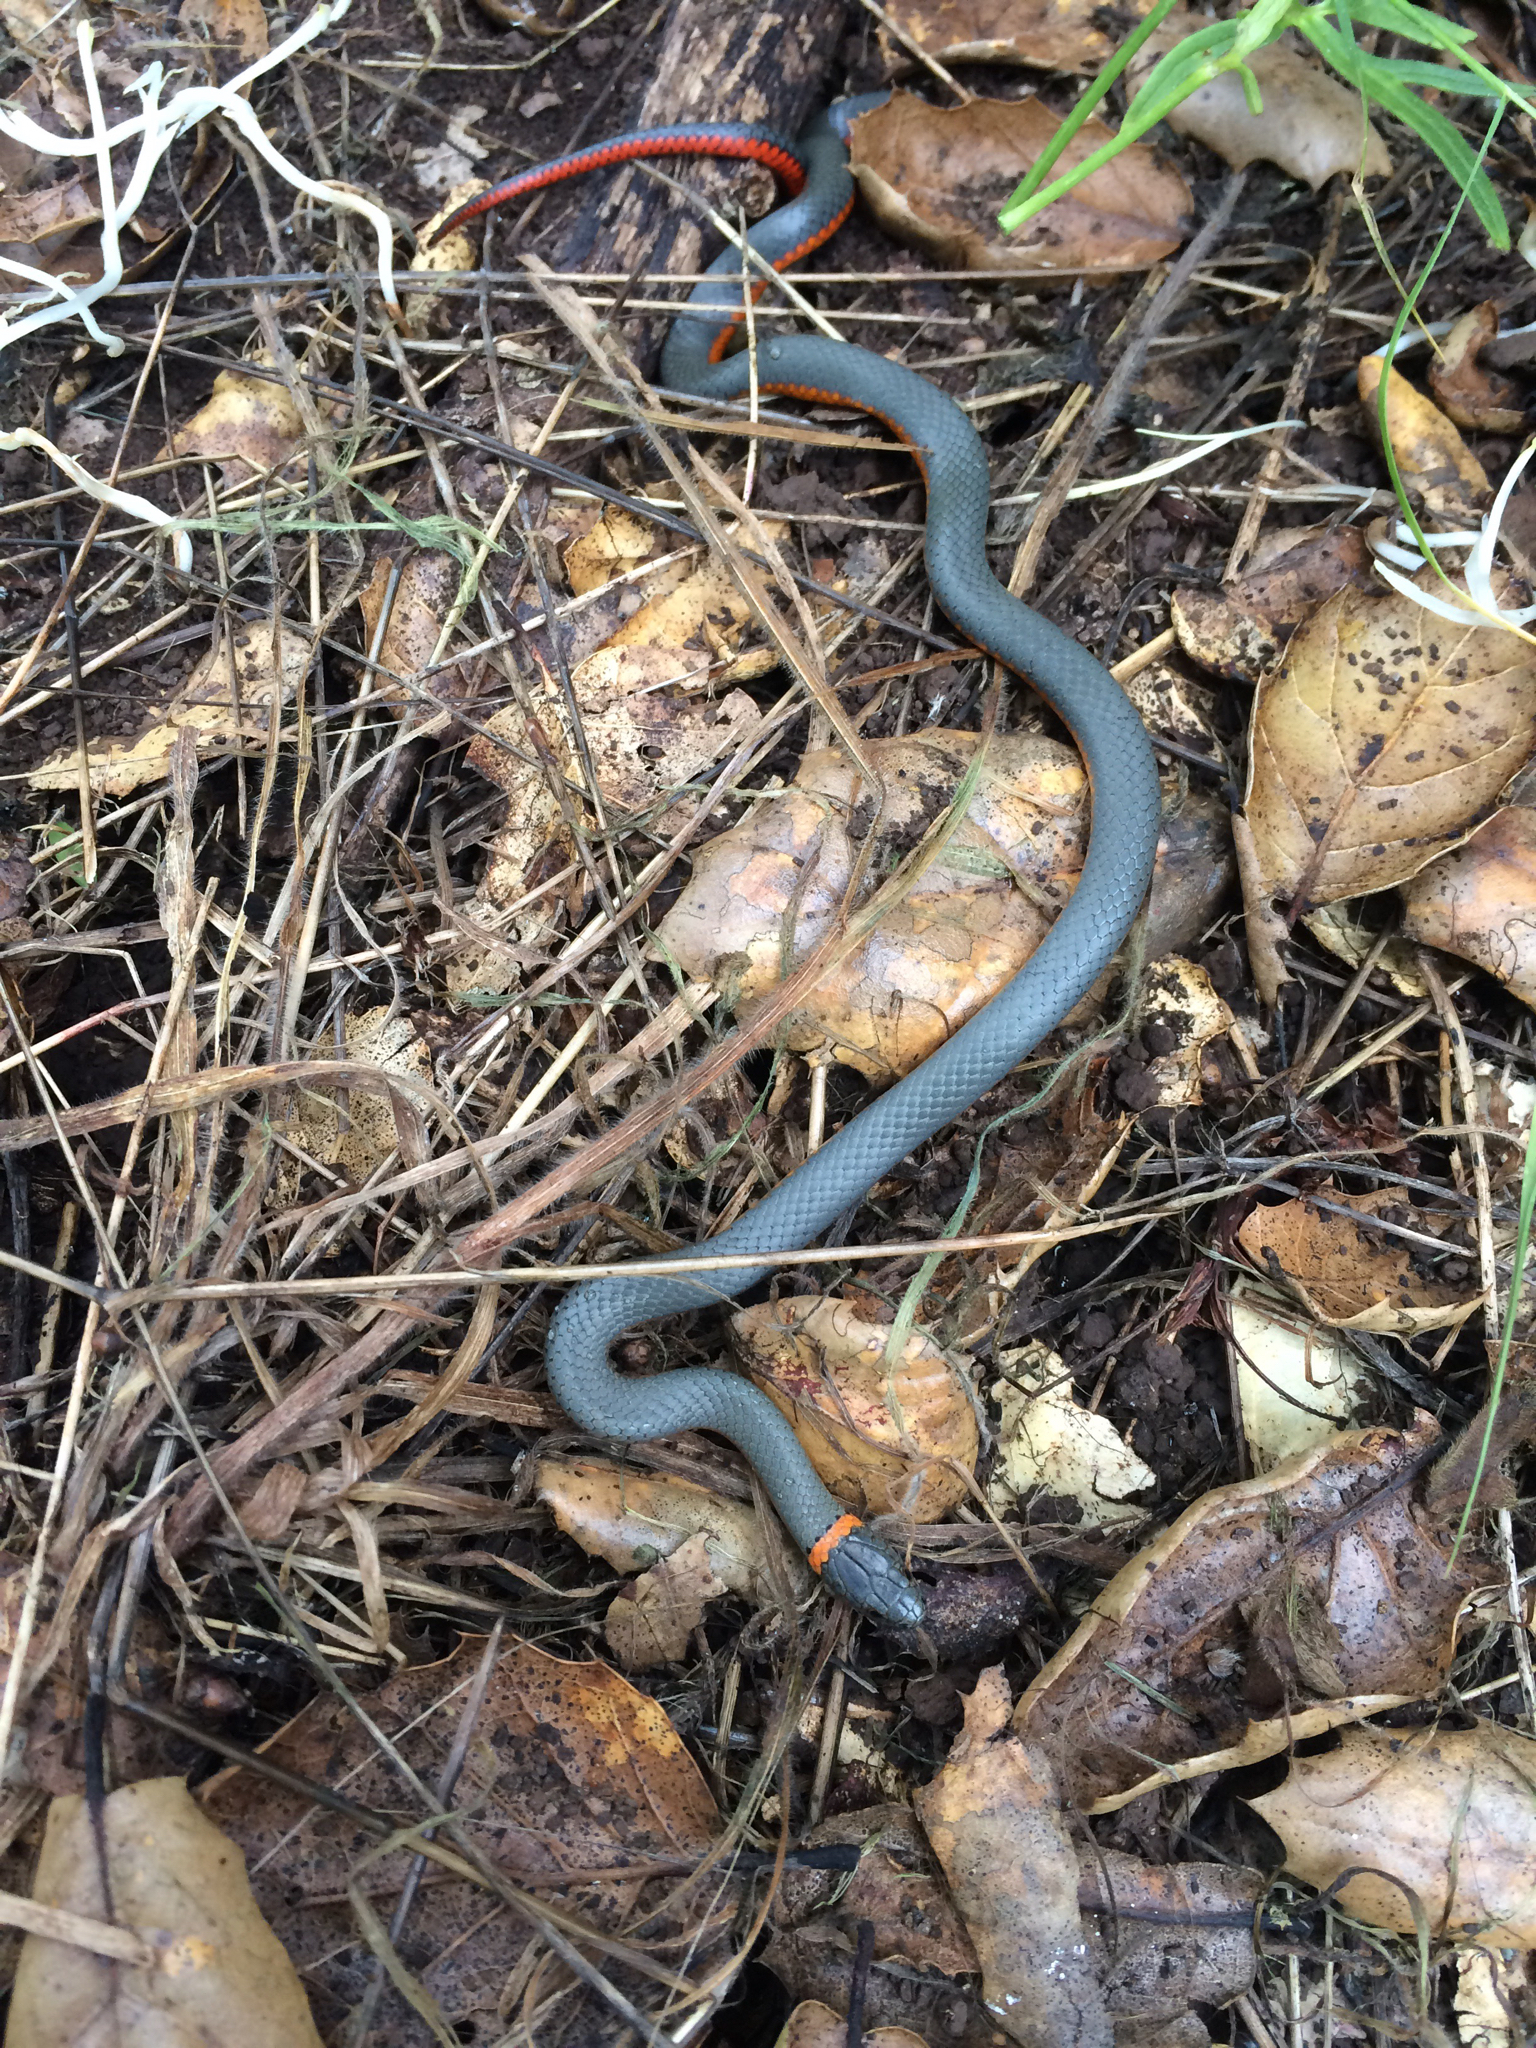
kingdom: Animalia
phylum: Chordata
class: Squamata
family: Colubridae
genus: Diadophis
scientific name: Diadophis punctatus
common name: Ringneck snake
